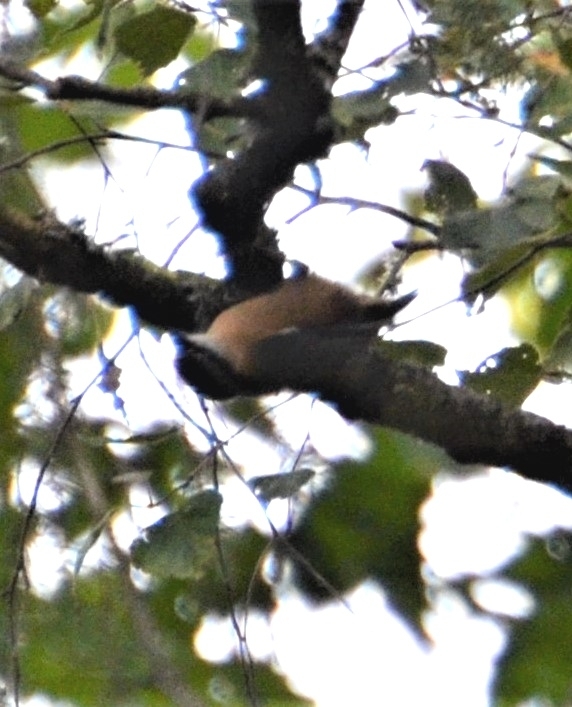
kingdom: Animalia
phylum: Chordata
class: Aves
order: Passeriformes
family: Sittidae
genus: Sitta
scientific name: Sitta europaea
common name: Eurasian nuthatch
